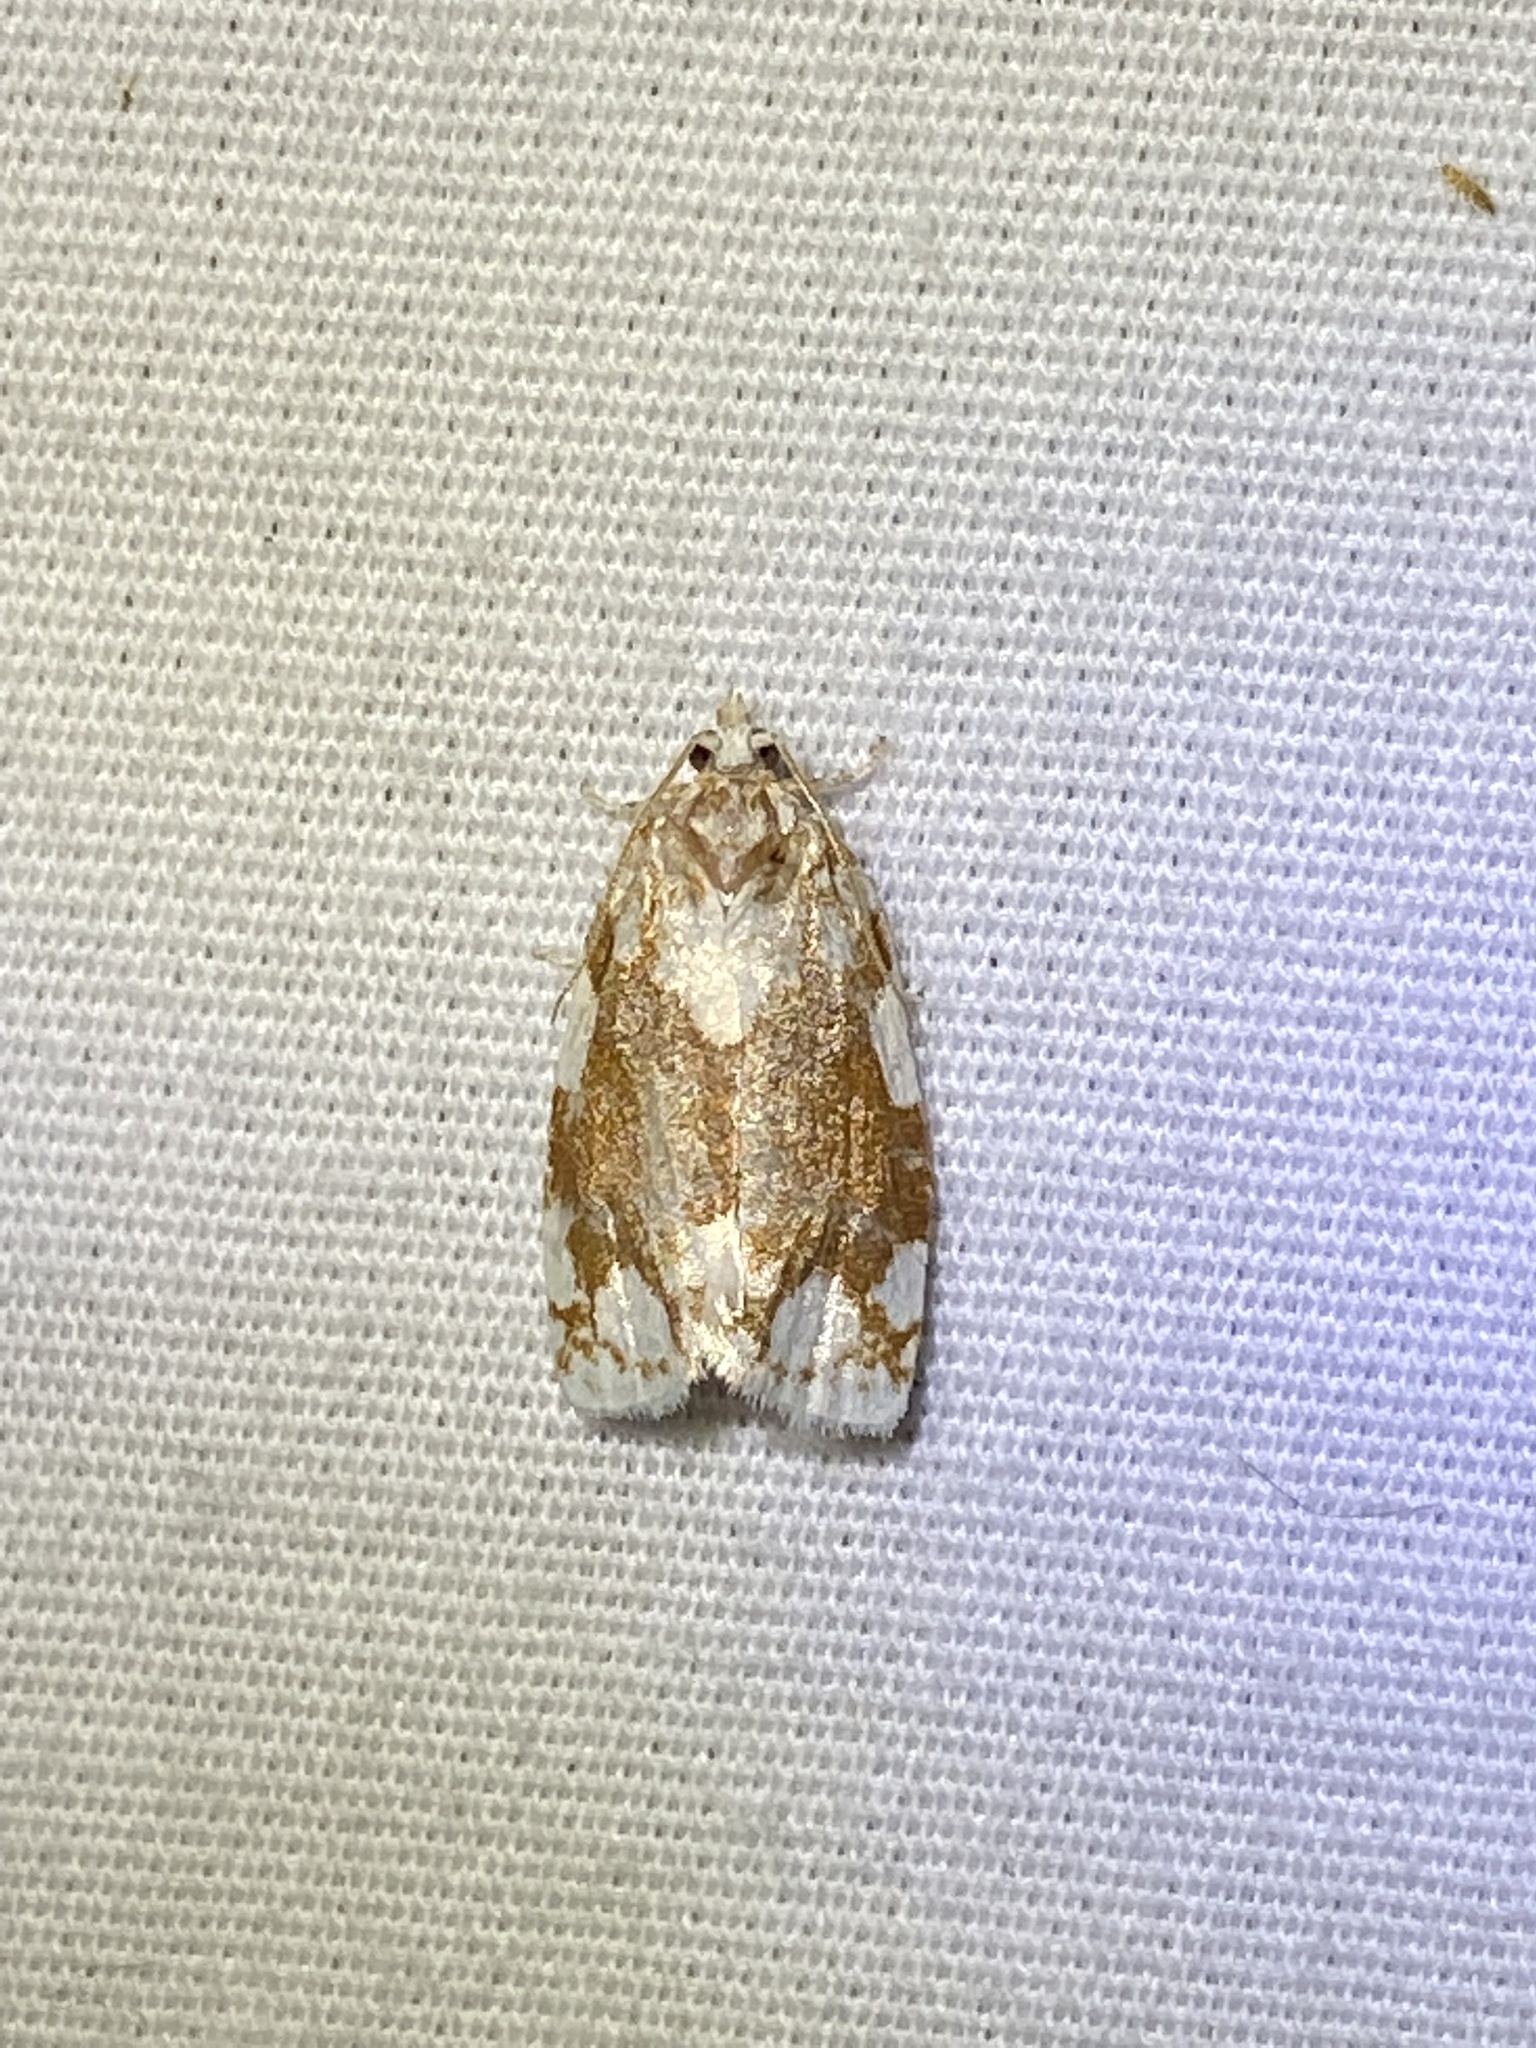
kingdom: Animalia
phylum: Arthropoda
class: Insecta
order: Lepidoptera
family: Tortricidae
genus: Argyrotaenia
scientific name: Argyrotaenia alisellana
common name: White-spotted leafroller moth
